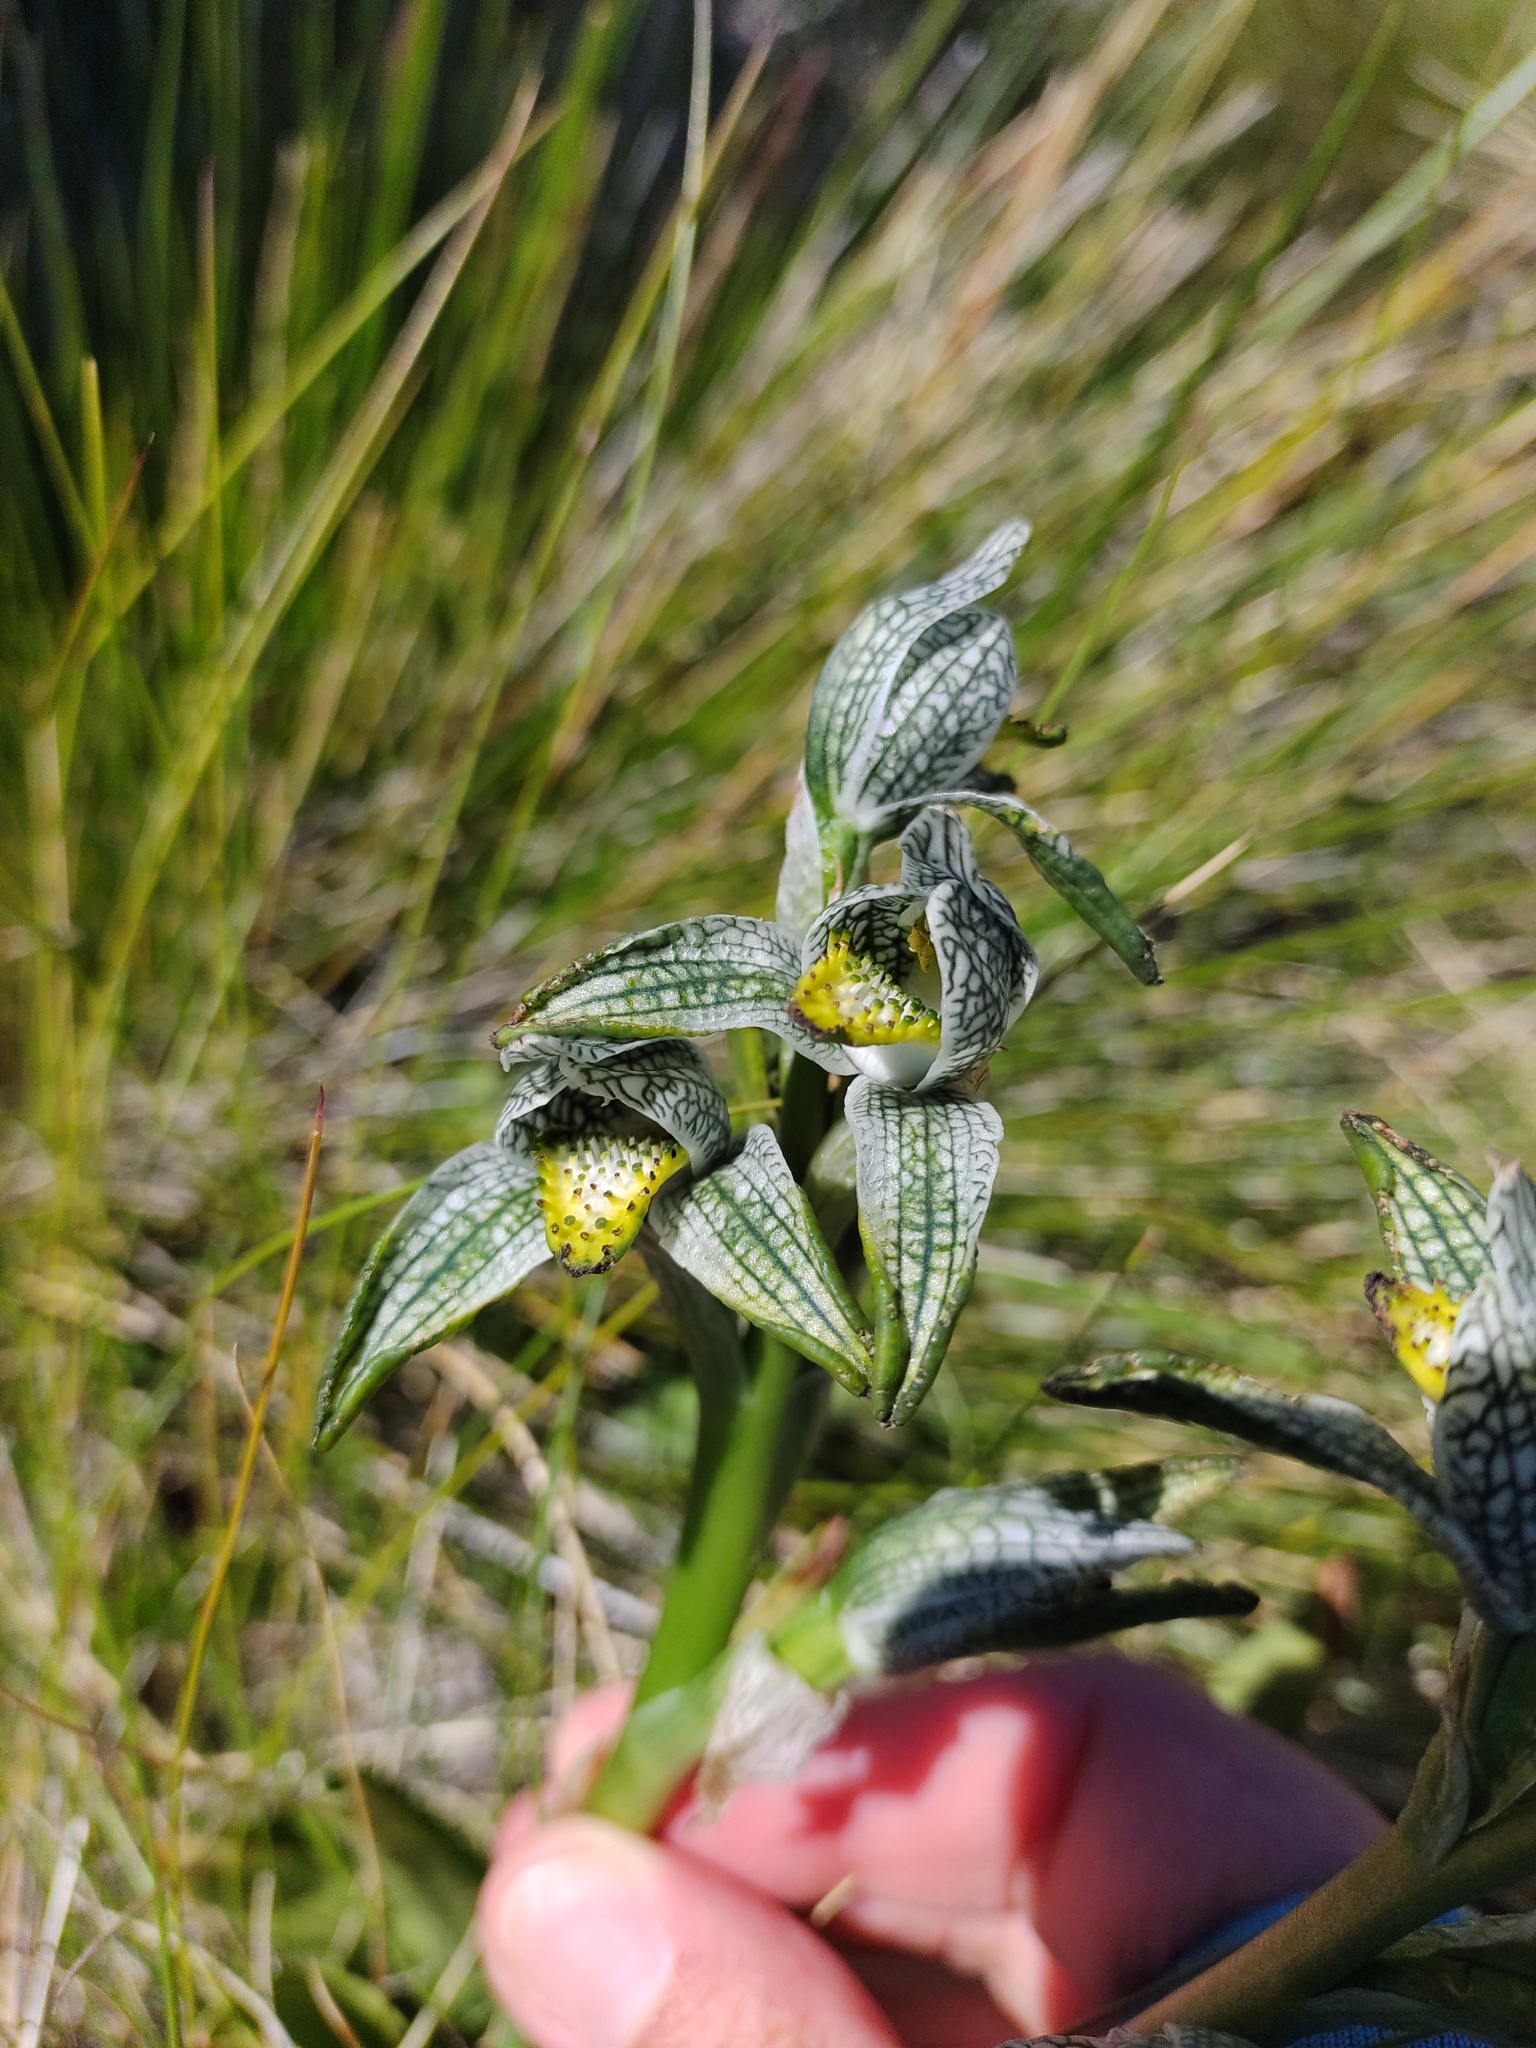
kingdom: Plantae
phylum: Tracheophyta
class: Liliopsida
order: Asparagales
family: Orchidaceae
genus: Chloraea
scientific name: Chloraea magellanica
